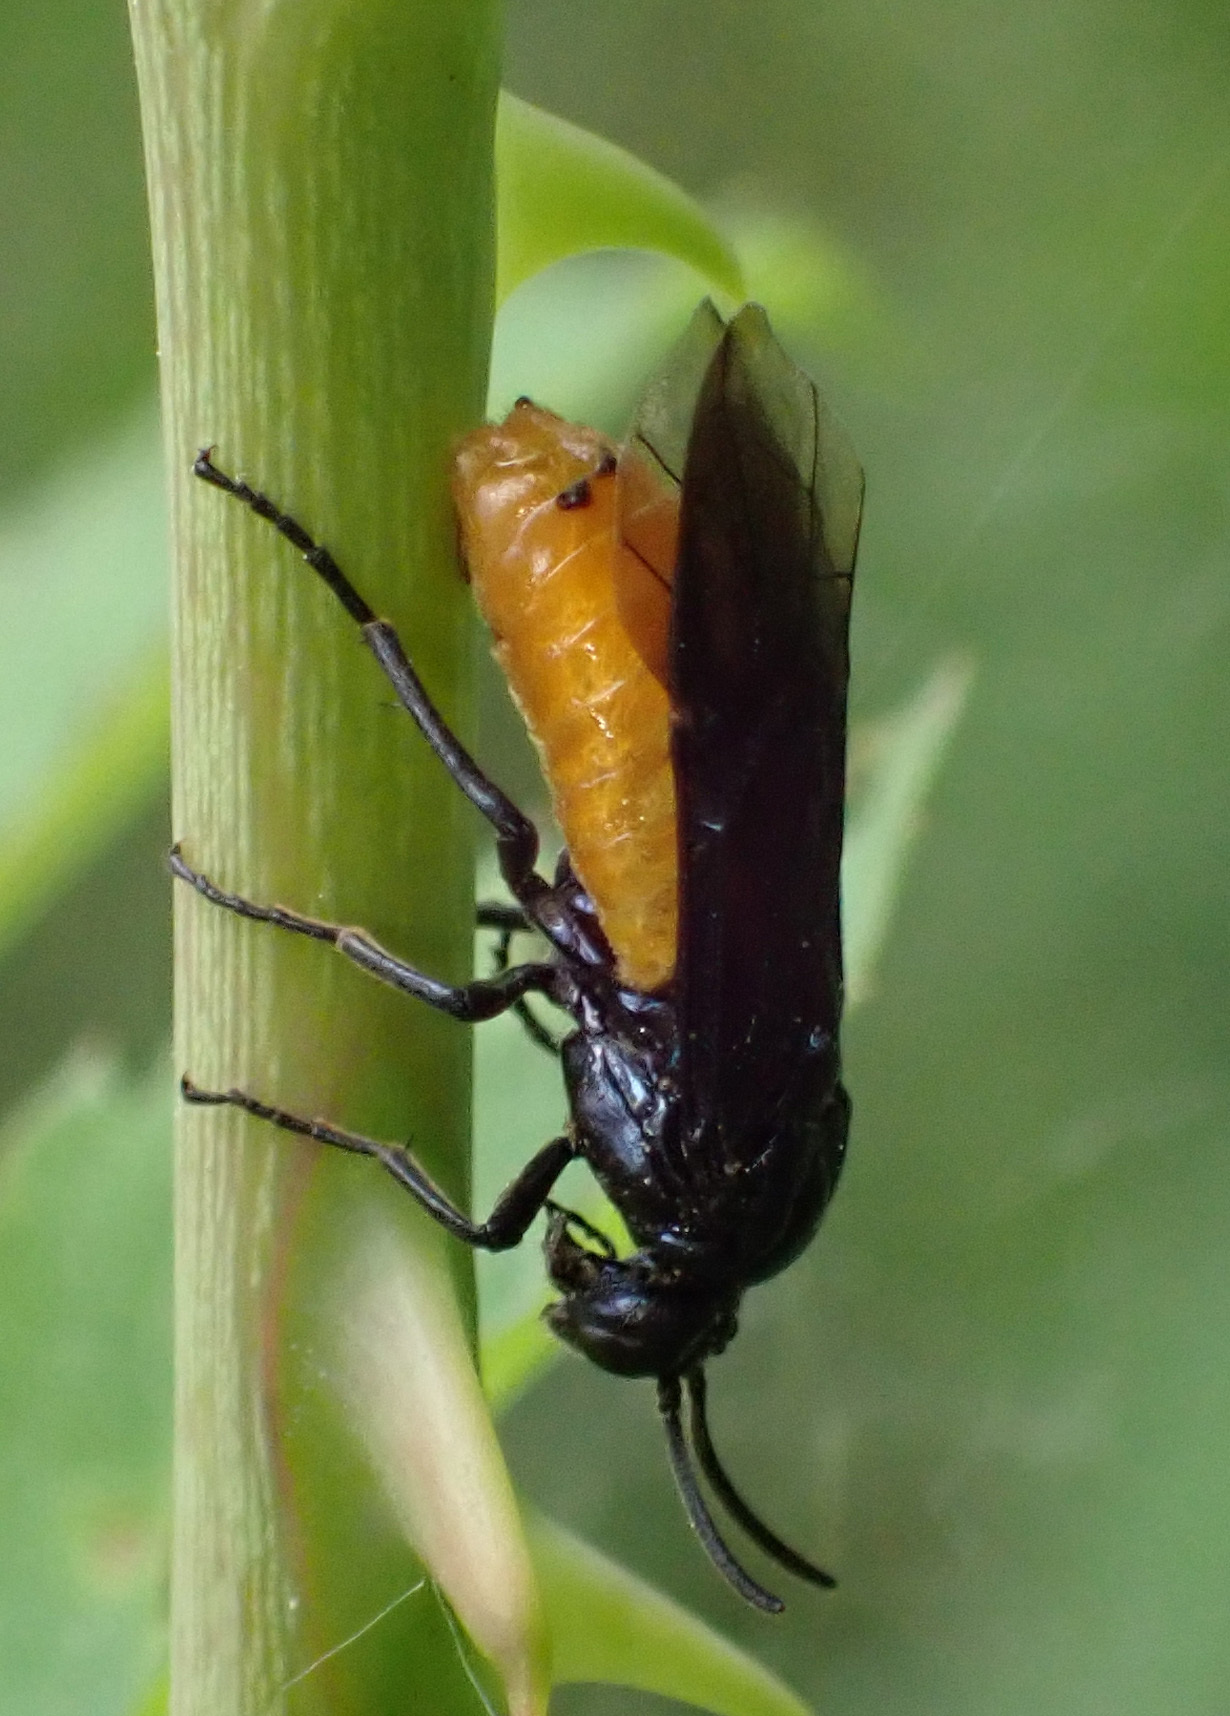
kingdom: Animalia
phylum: Arthropoda
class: Insecta
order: Hymenoptera
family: Argidae
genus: Arge
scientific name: Arge pagana
